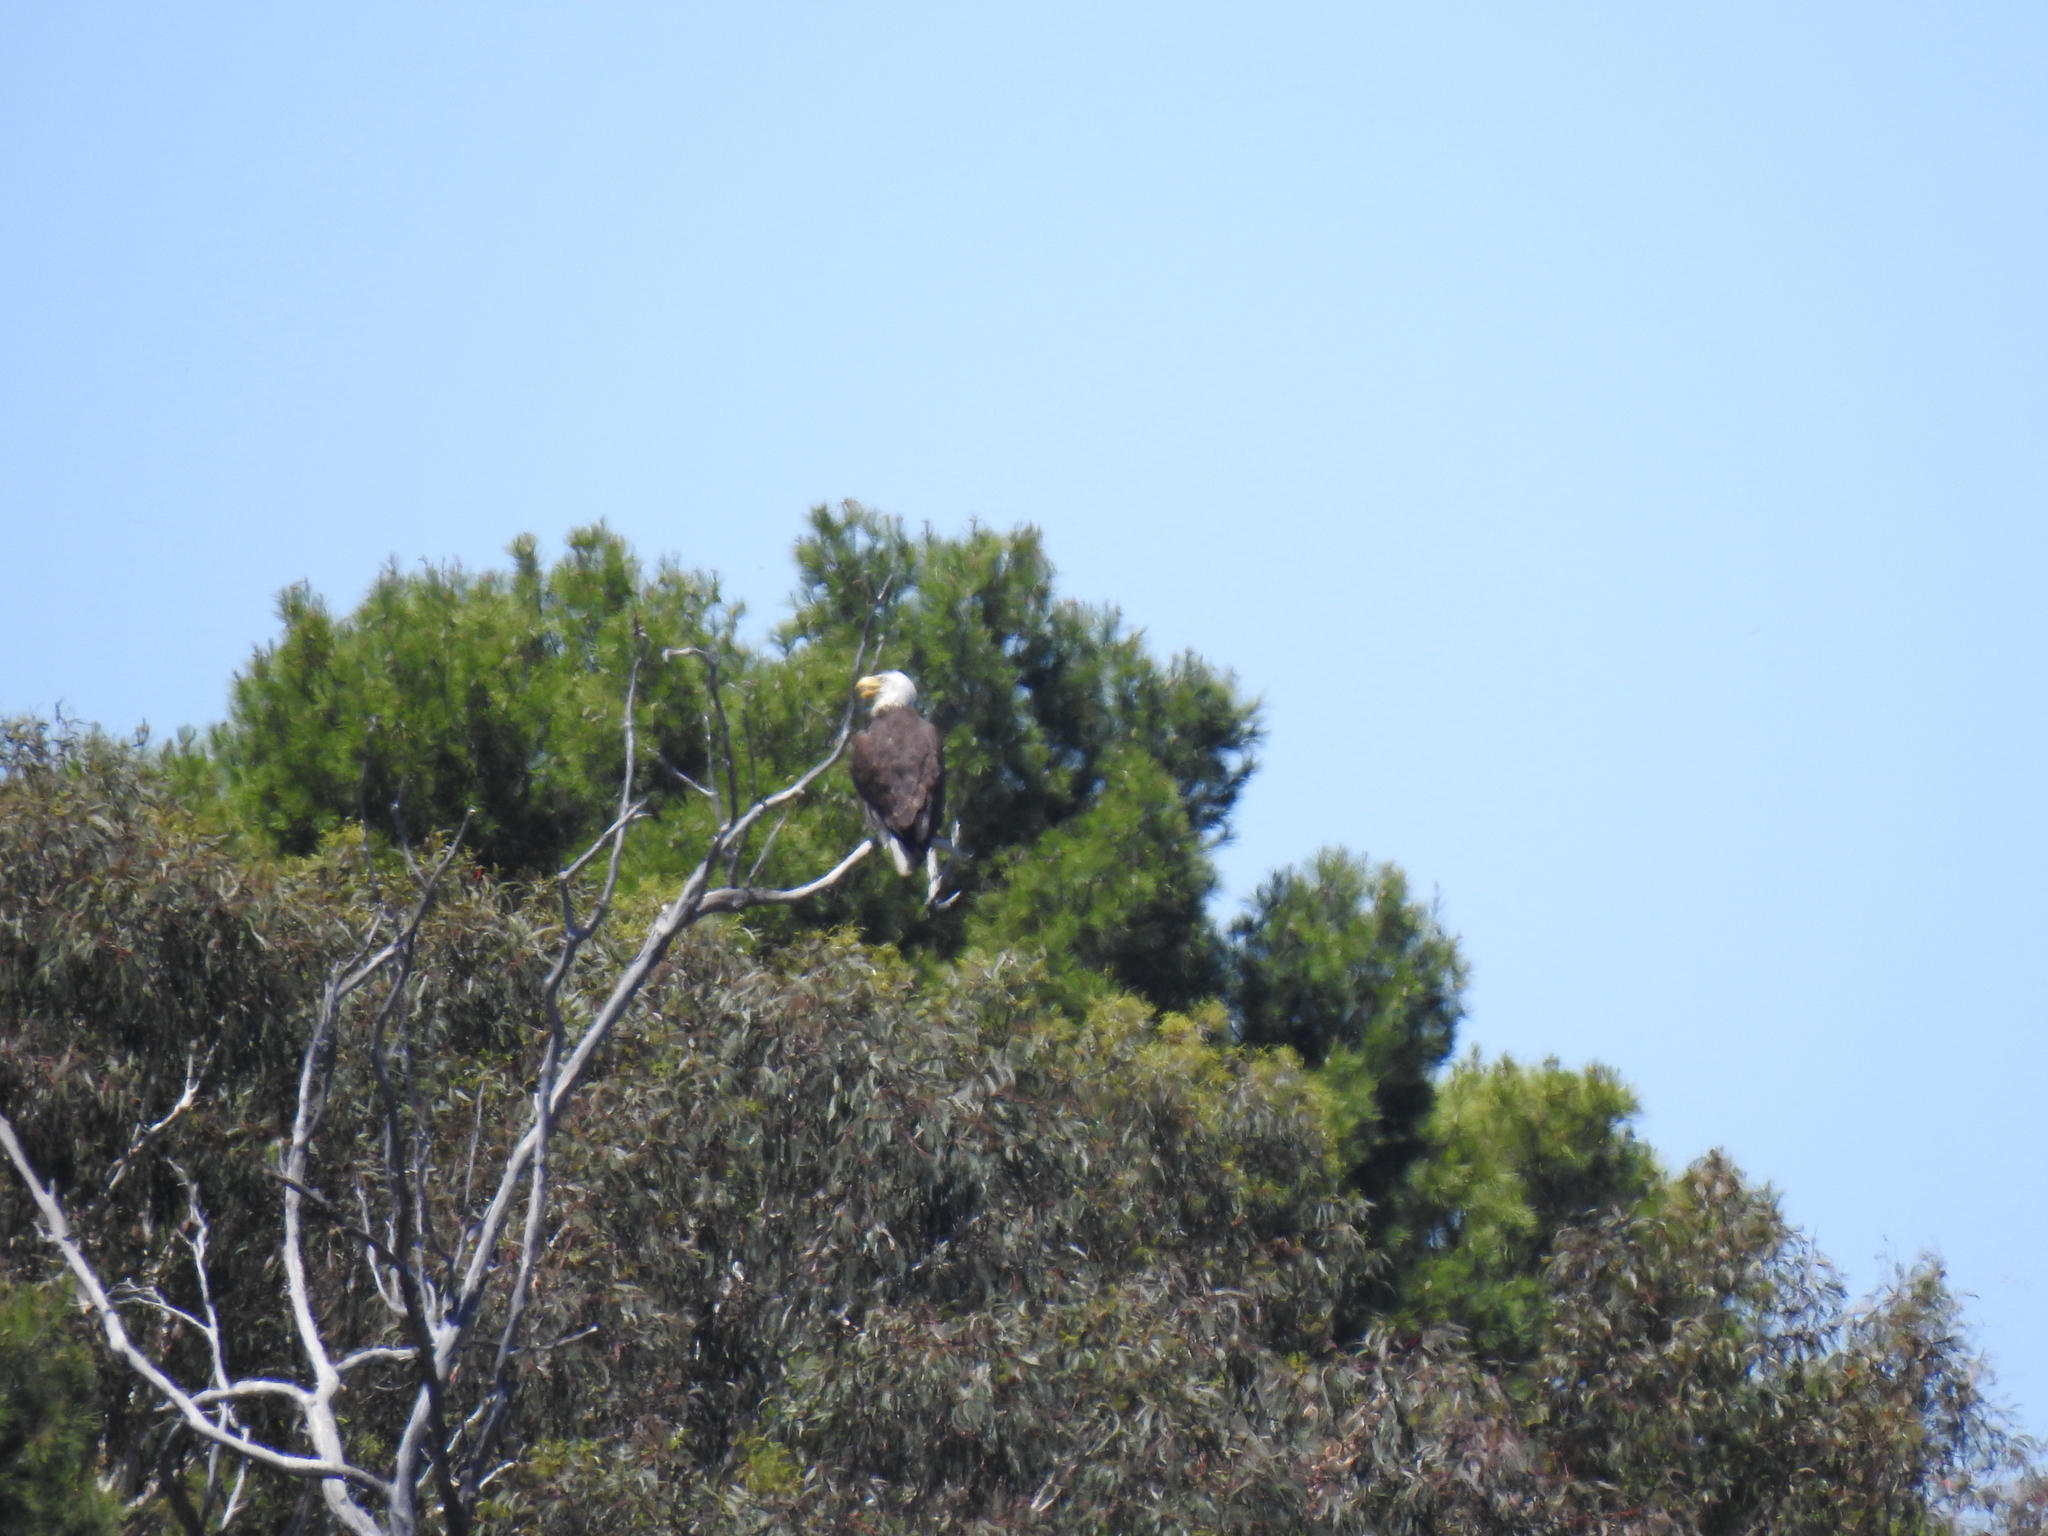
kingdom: Animalia
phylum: Chordata
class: Aves
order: Accipitriformes
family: Accipitridae
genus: Haliaeetus
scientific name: Haliaeetus leucocephalus
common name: Bald eagle
